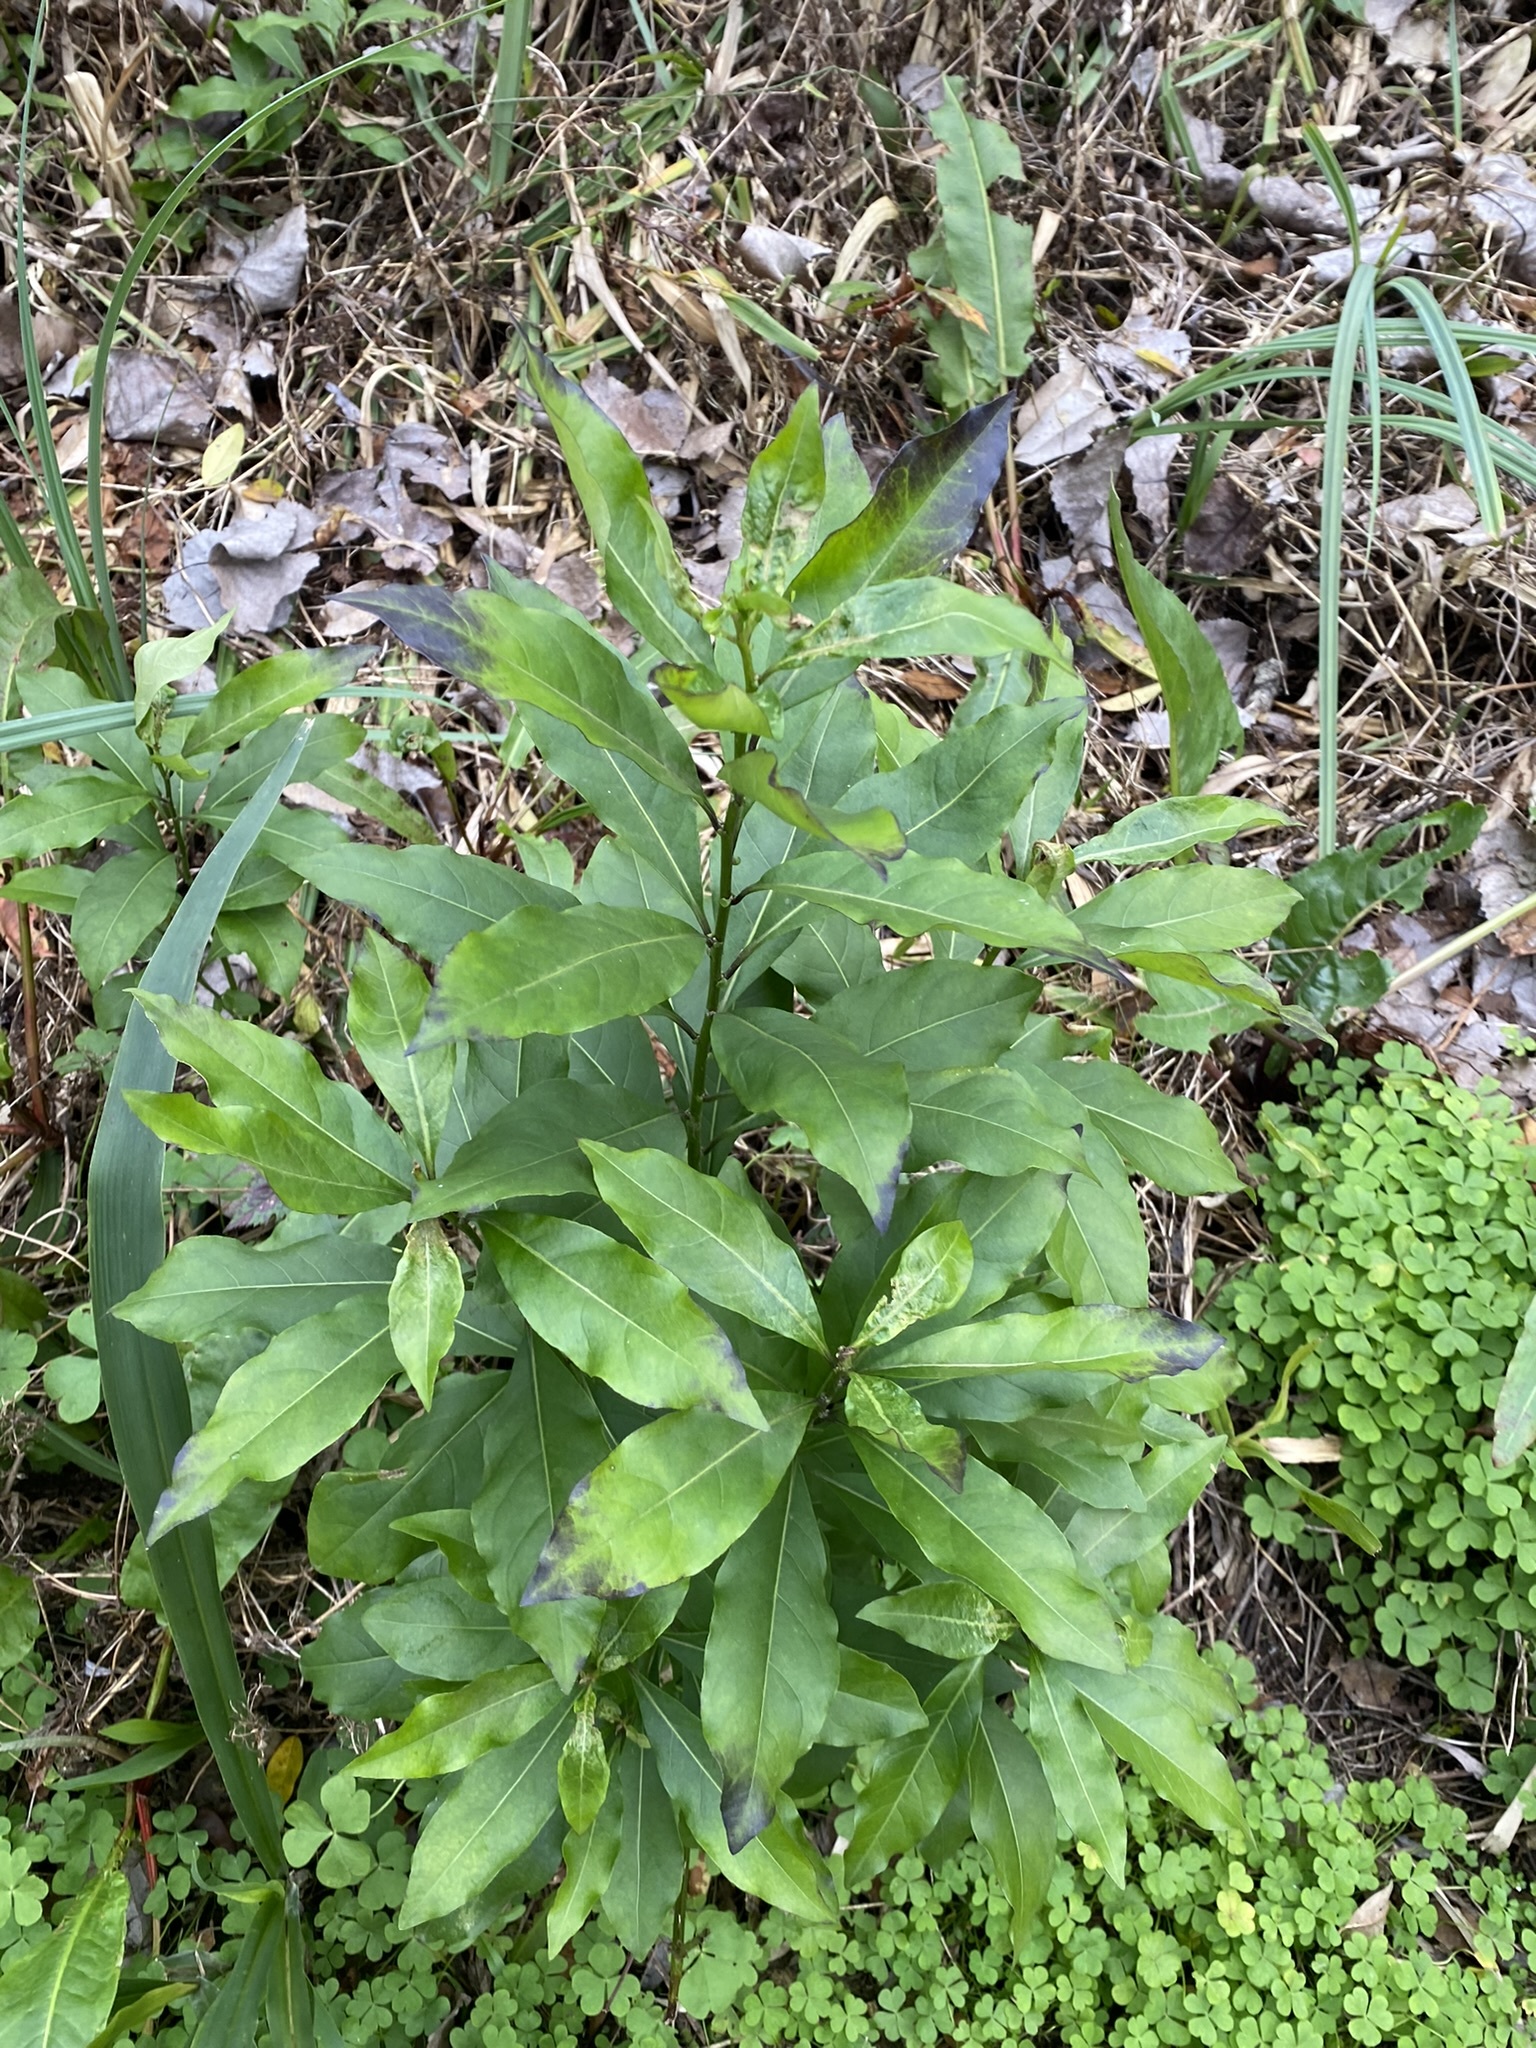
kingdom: Plantae
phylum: Tracheophyta
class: Magnoliopsida
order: Laurales
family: Lauraceae
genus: Ocotea
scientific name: Ocotea acutifolia
